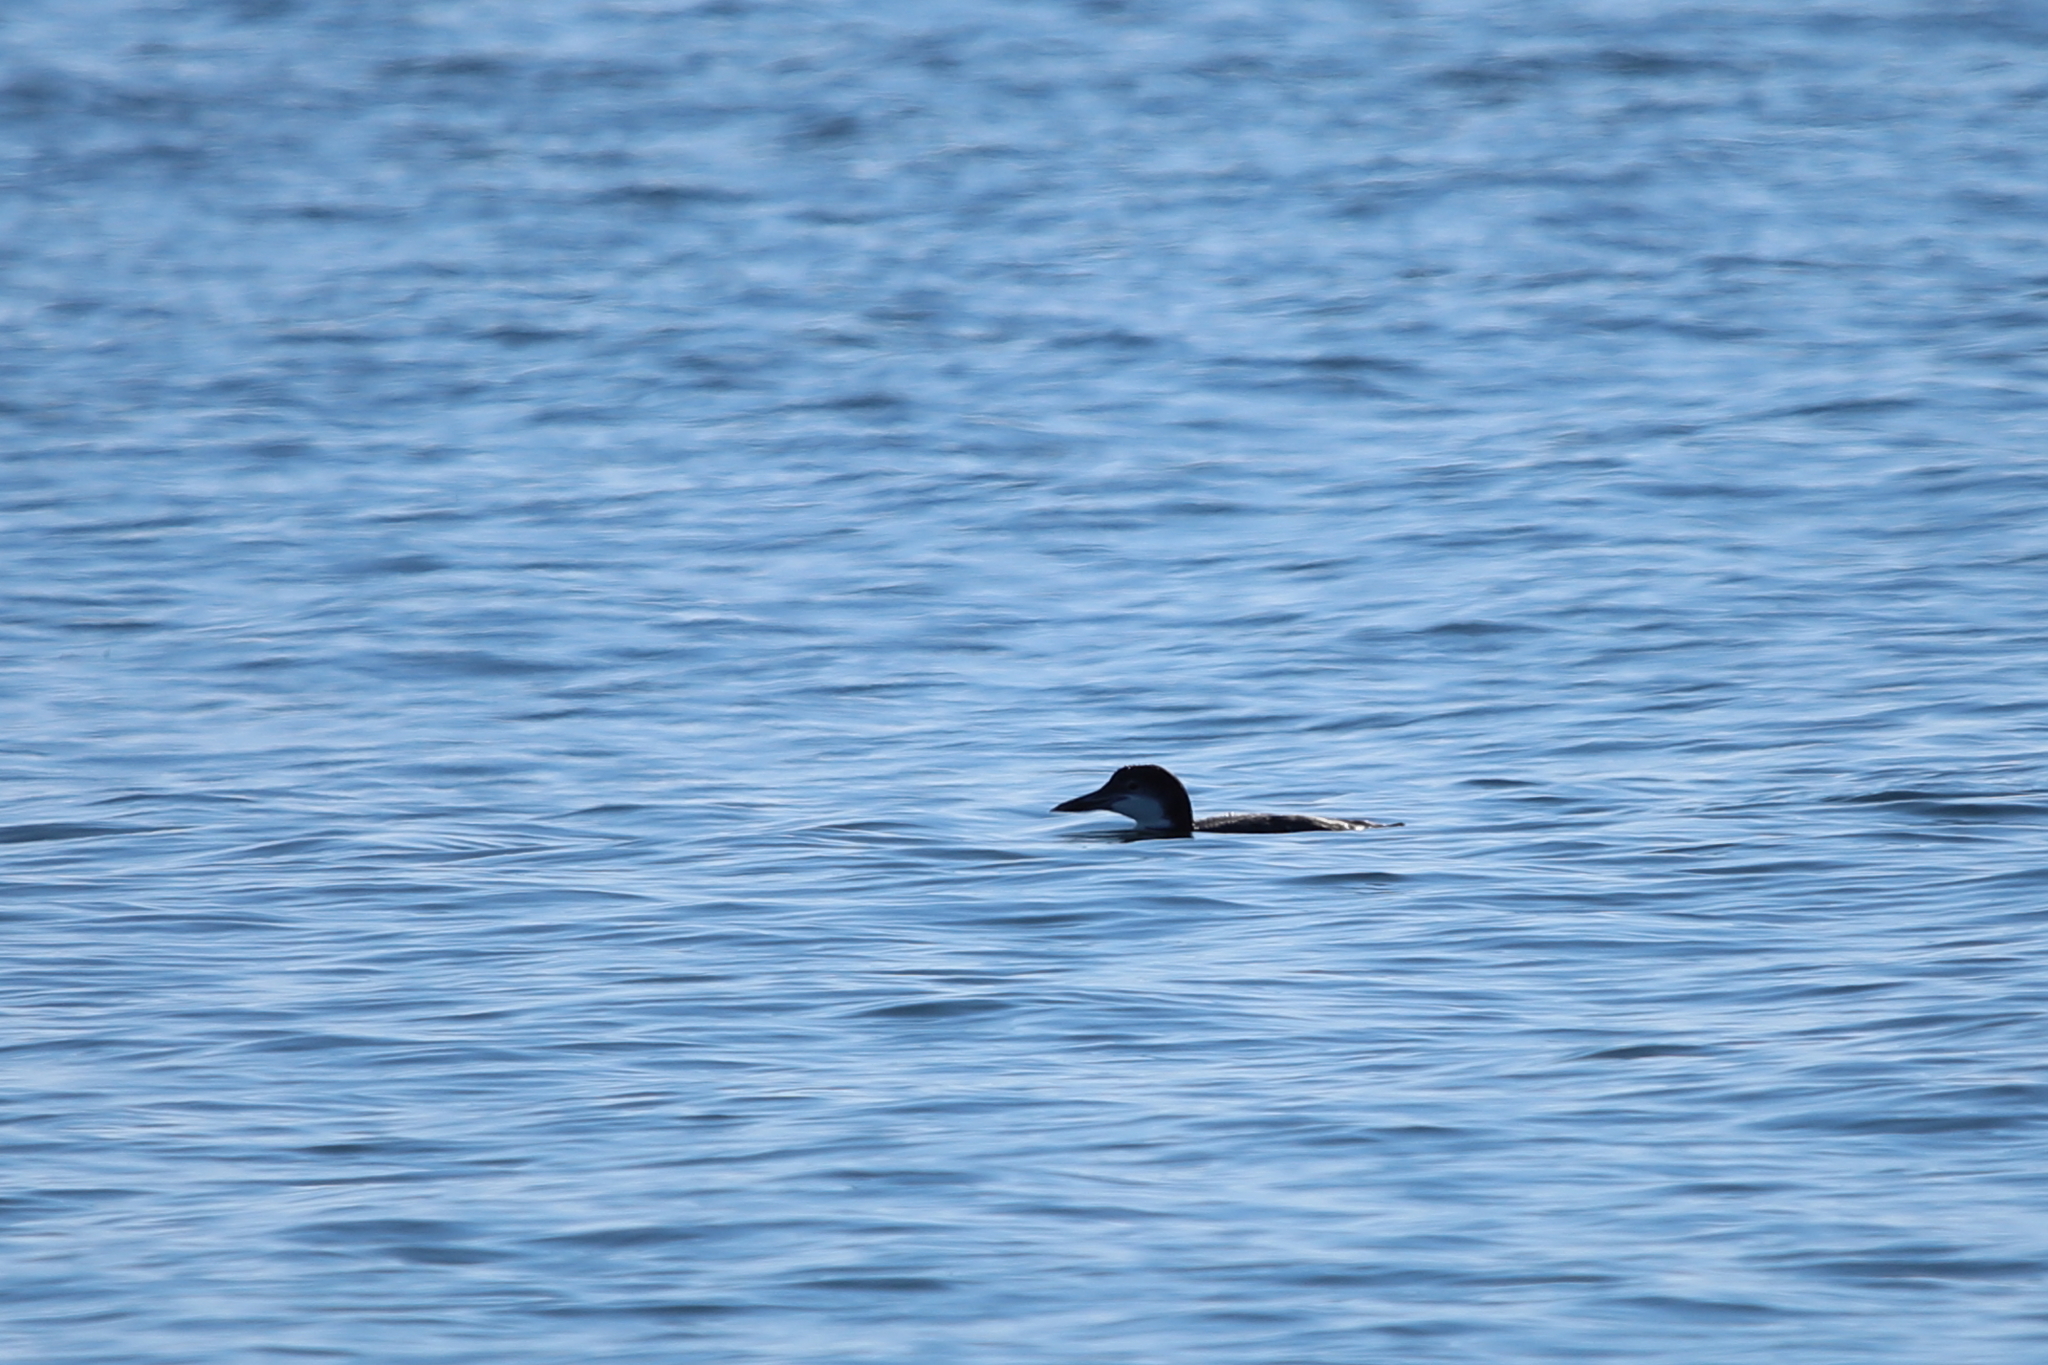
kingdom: Animalia
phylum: Chordata
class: Aves
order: Gaviiformes
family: Gaviidae
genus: Gavia
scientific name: Gavia immer
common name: Common loon
